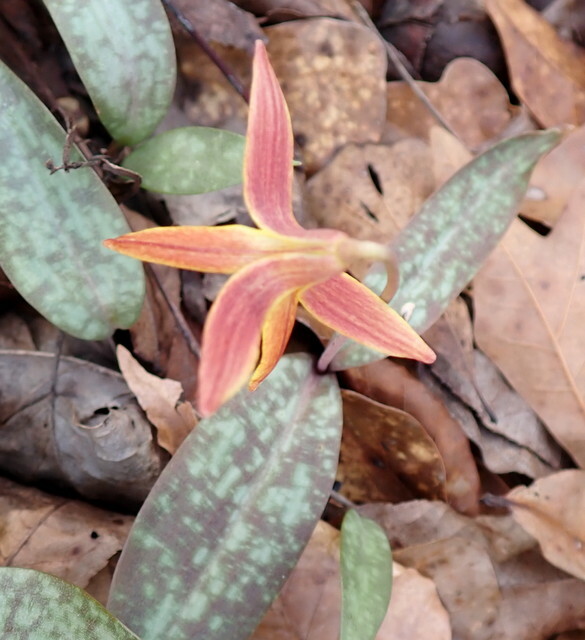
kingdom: Plantae
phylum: Tracheophyta
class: Liliopsida
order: Liliales
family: Liliaceae
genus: Erythronium
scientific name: Erythronium umbilicatum
